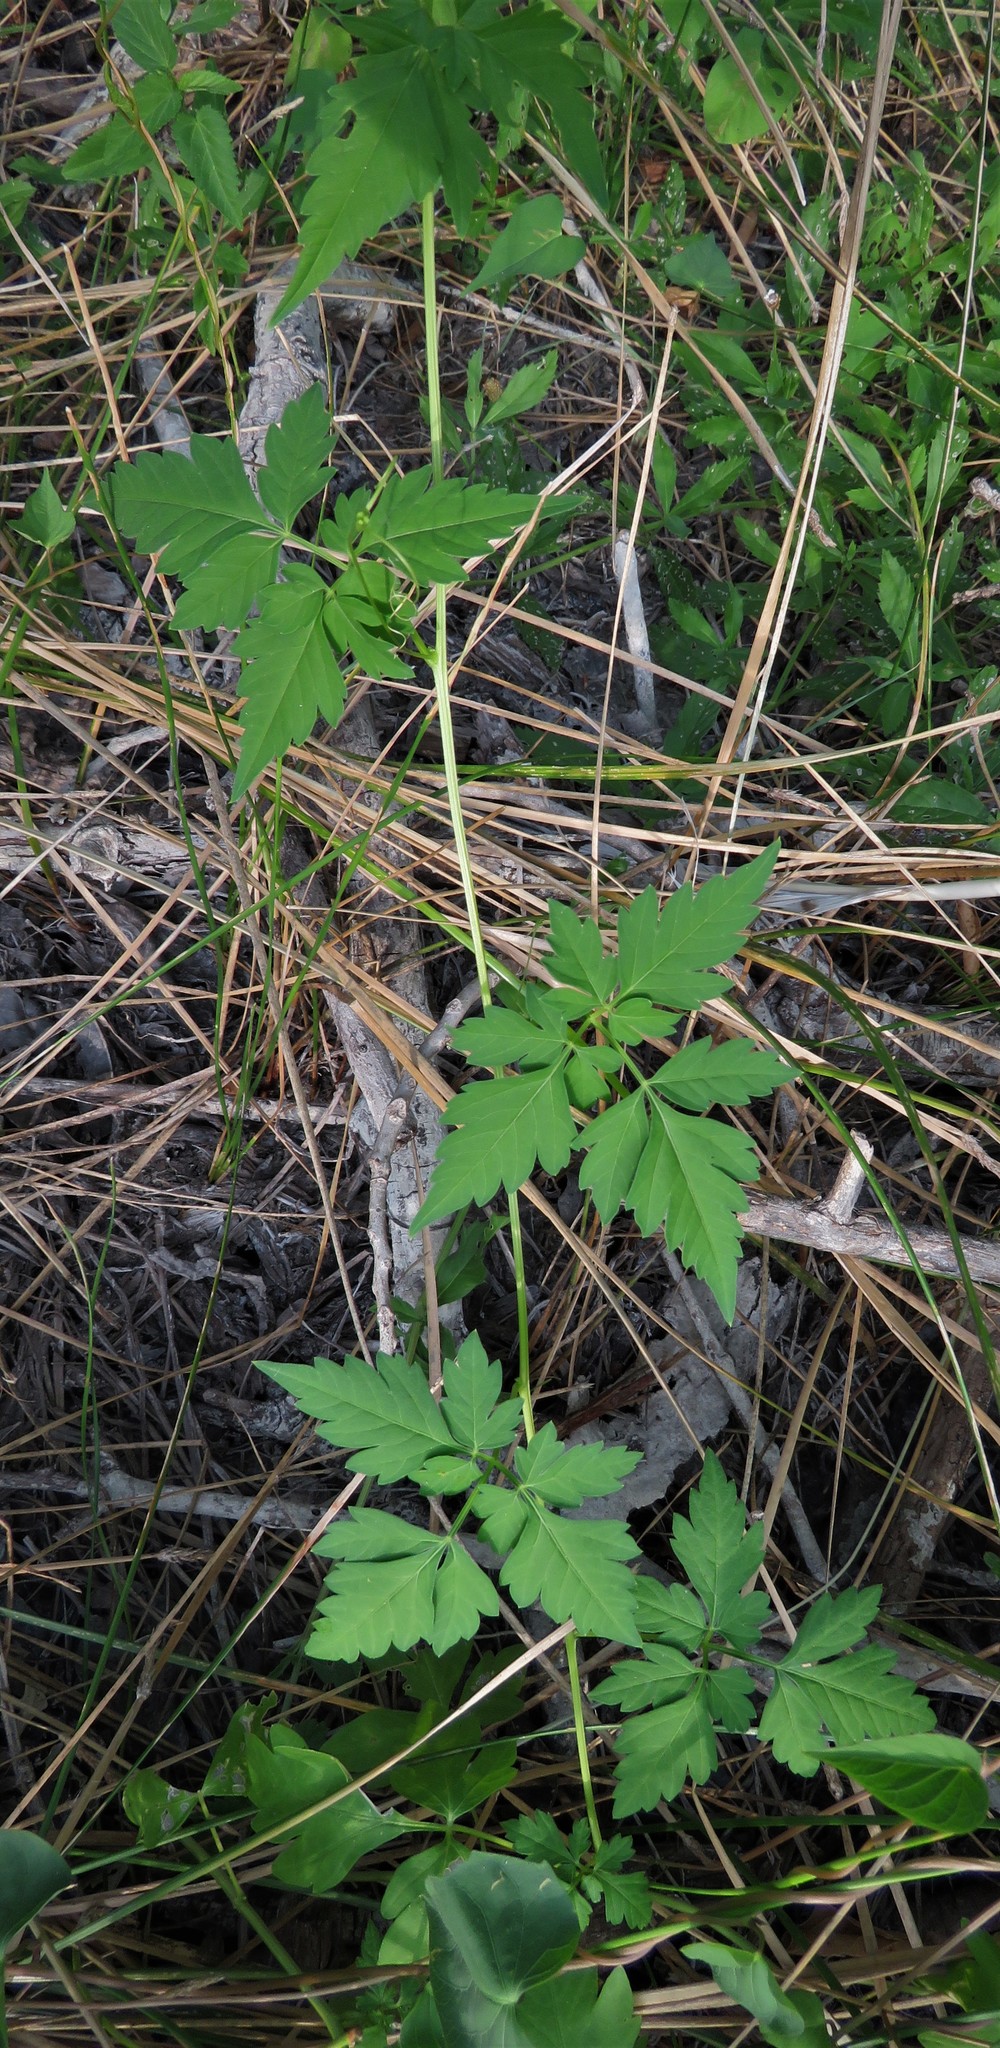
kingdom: Plantae
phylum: Tracheophyta
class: Magnoliopsida
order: Sapindales
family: Sapindaceae
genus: Cardiospermum
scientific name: Cardiospermum halicacabum
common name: Balloon vine
